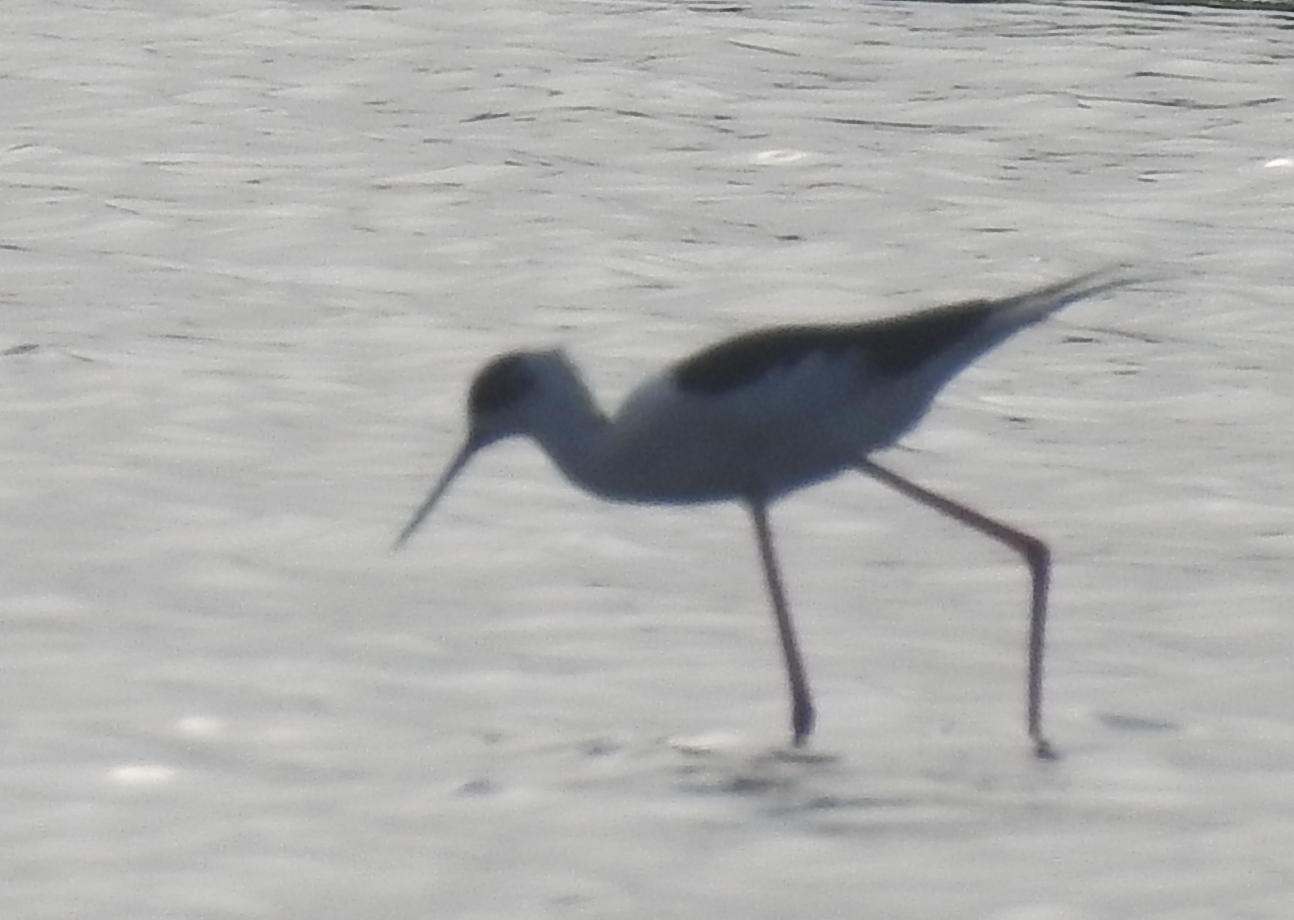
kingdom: Animalia
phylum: Chordata
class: Aves
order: Charadriiformes
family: Recurvirostridae
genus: Himantopus
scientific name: Himantopus himantopus
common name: Black-winged stilt
